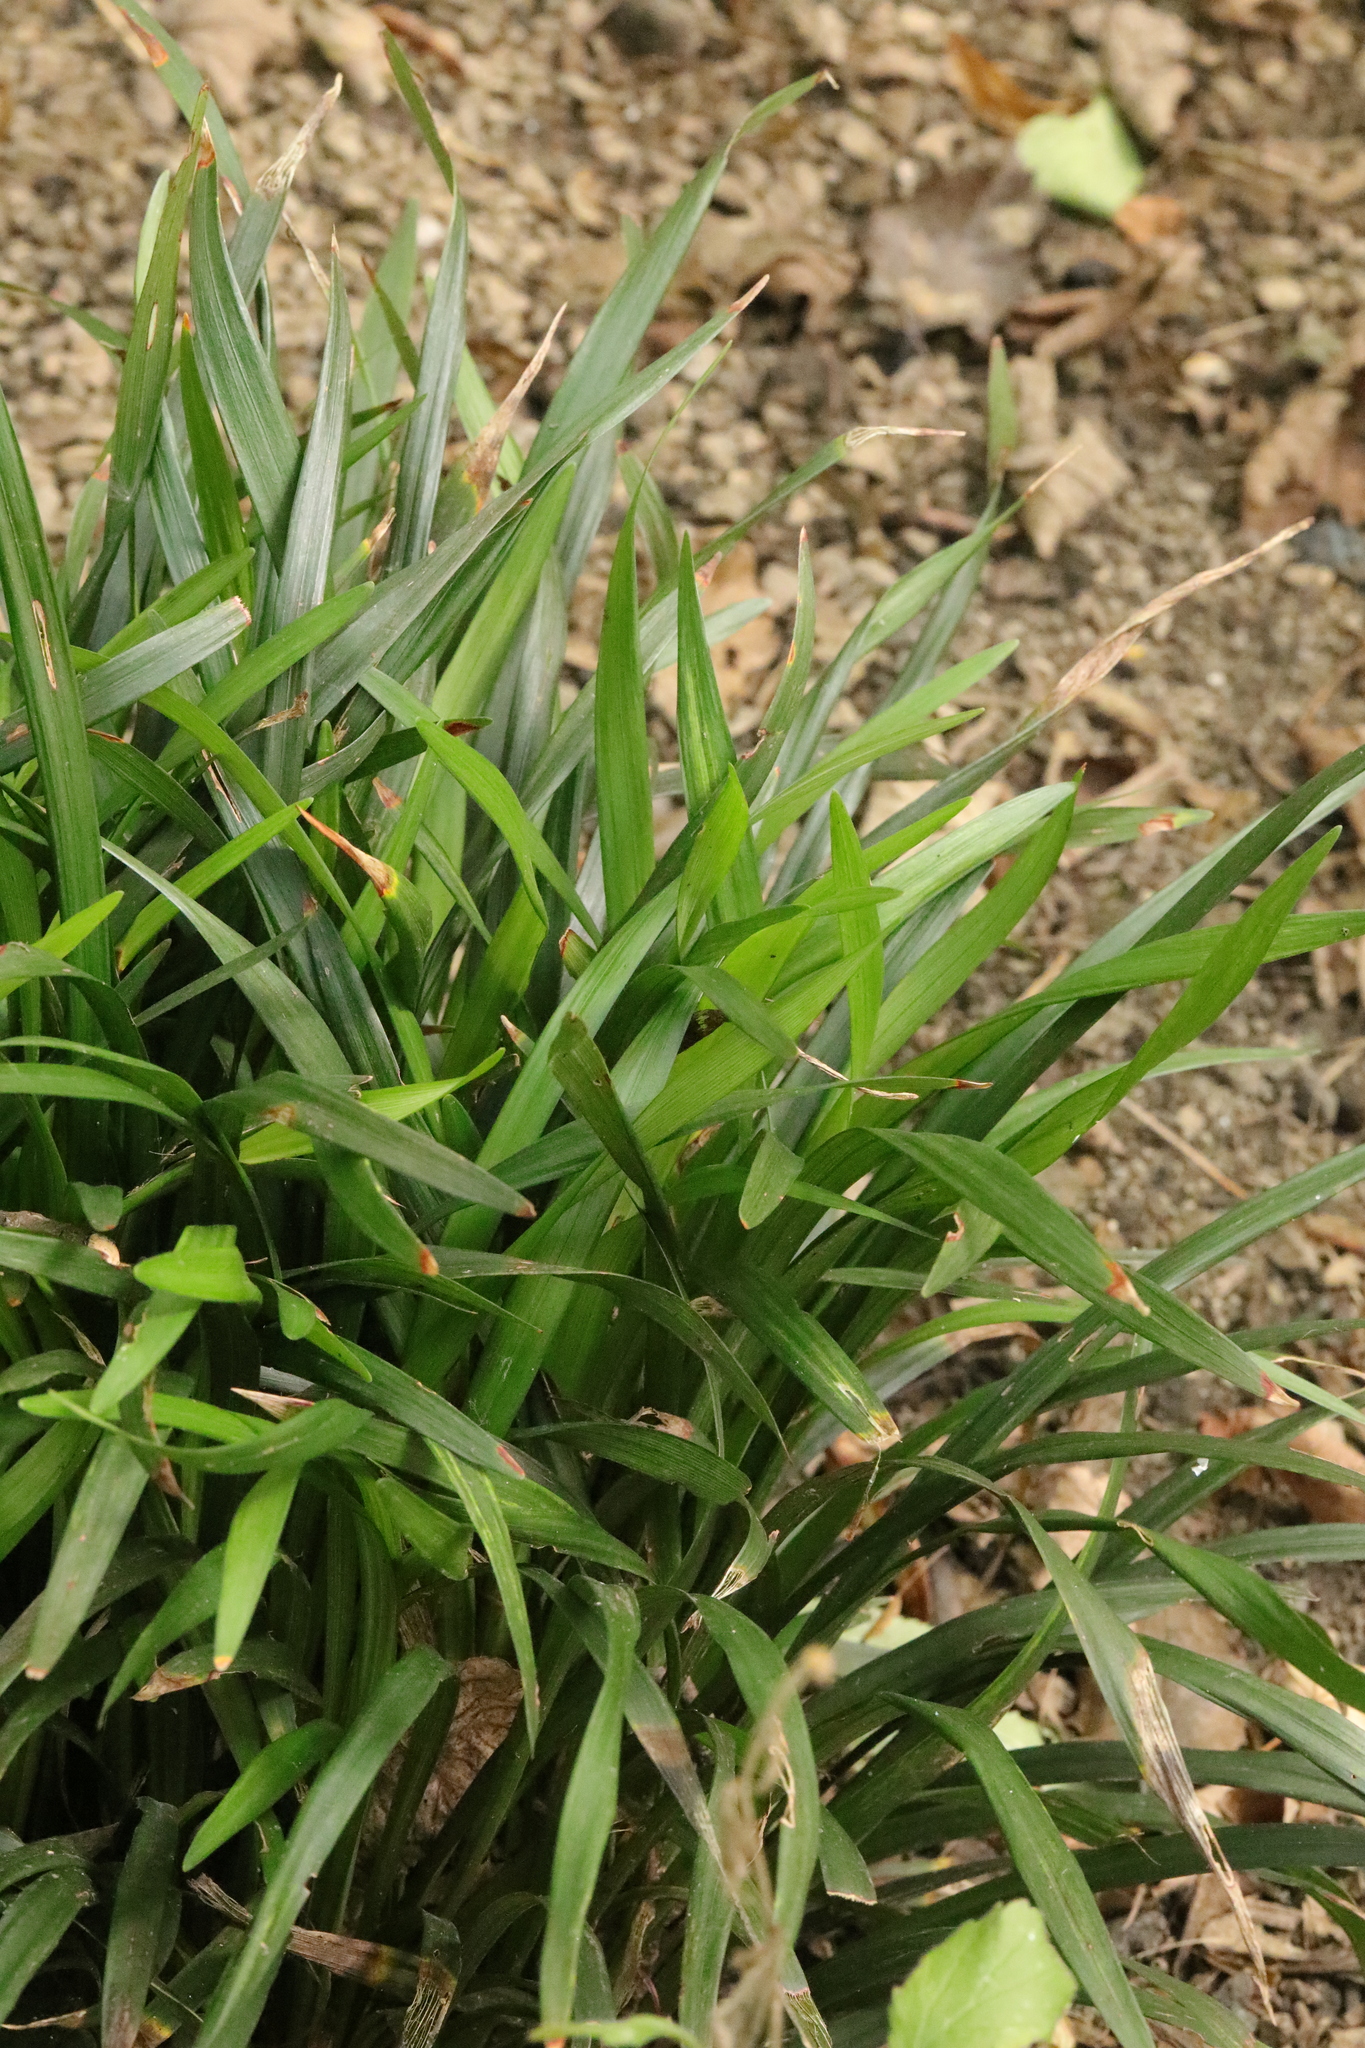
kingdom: Plantae
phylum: Tracheophyta
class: Liliopsida
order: Asparagales
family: Iridaceae
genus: Iris
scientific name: Iris foetidissima
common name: Stinking iris
